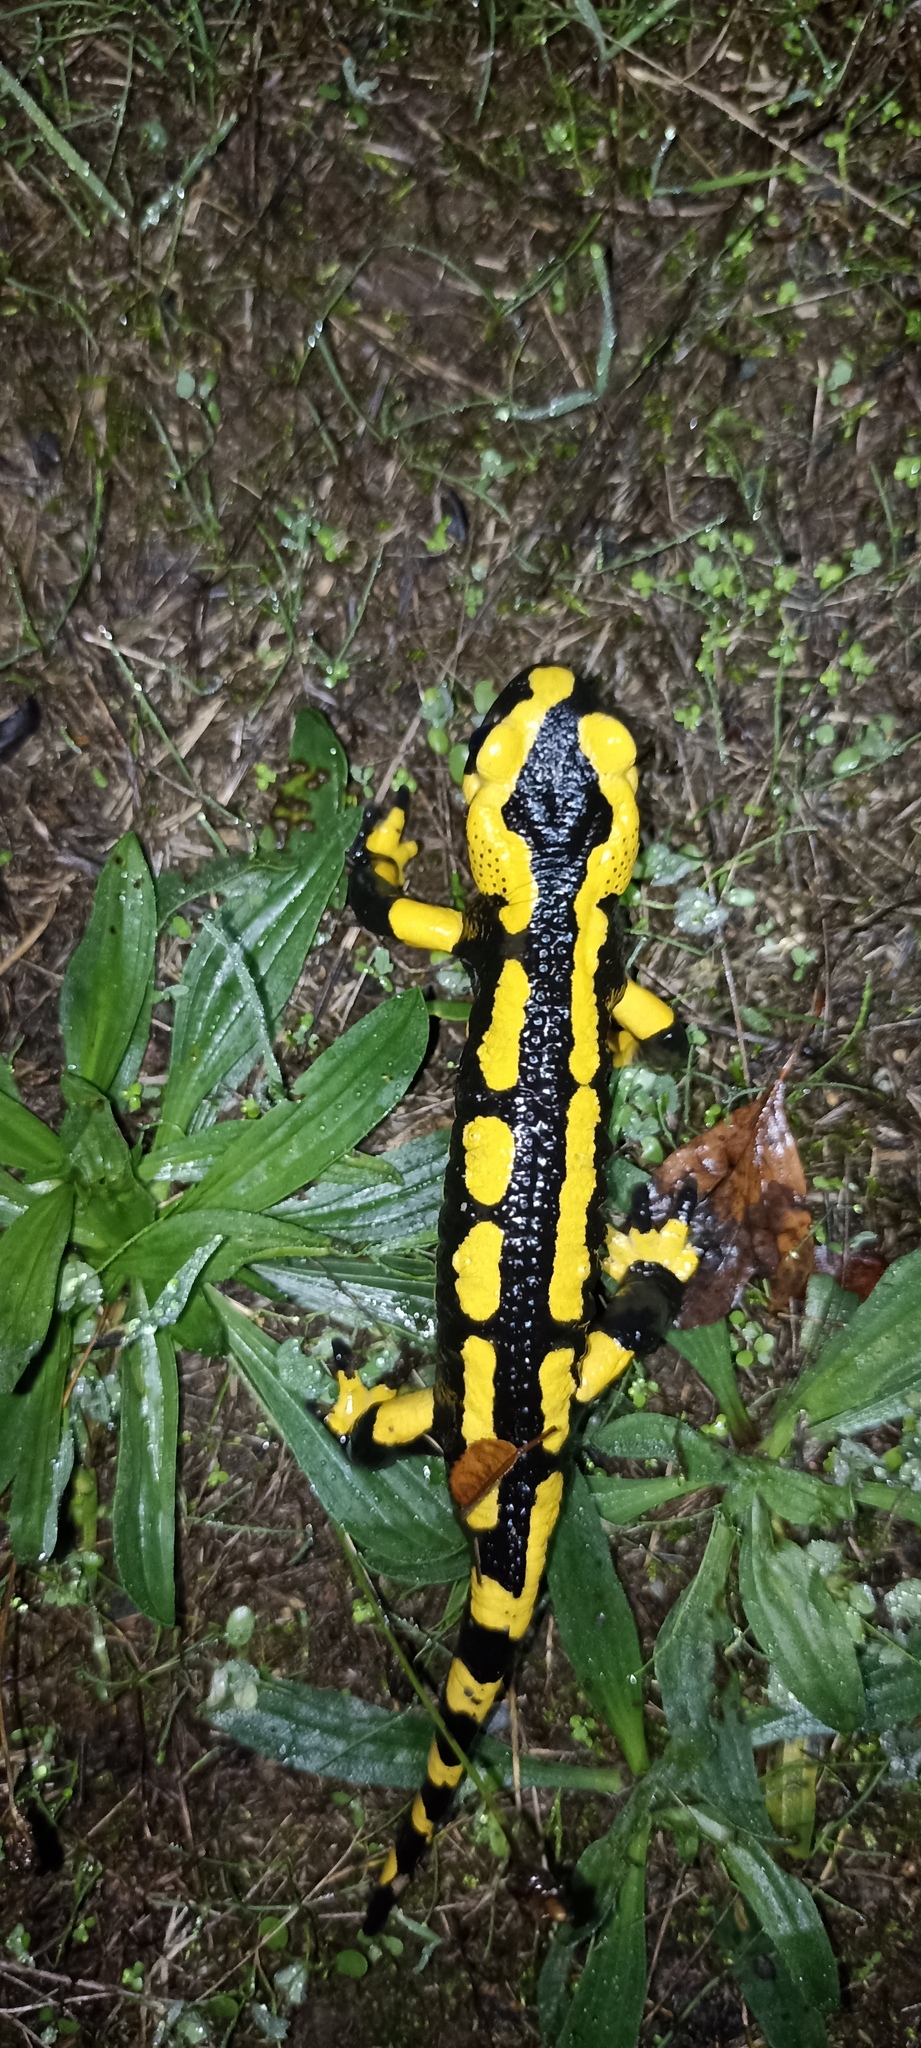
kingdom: Animalia
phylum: Chordata
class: Amphibia
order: Caudata
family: Salamandridae
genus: Salamandra
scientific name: Salamandra salamandra
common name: Fire salamander
